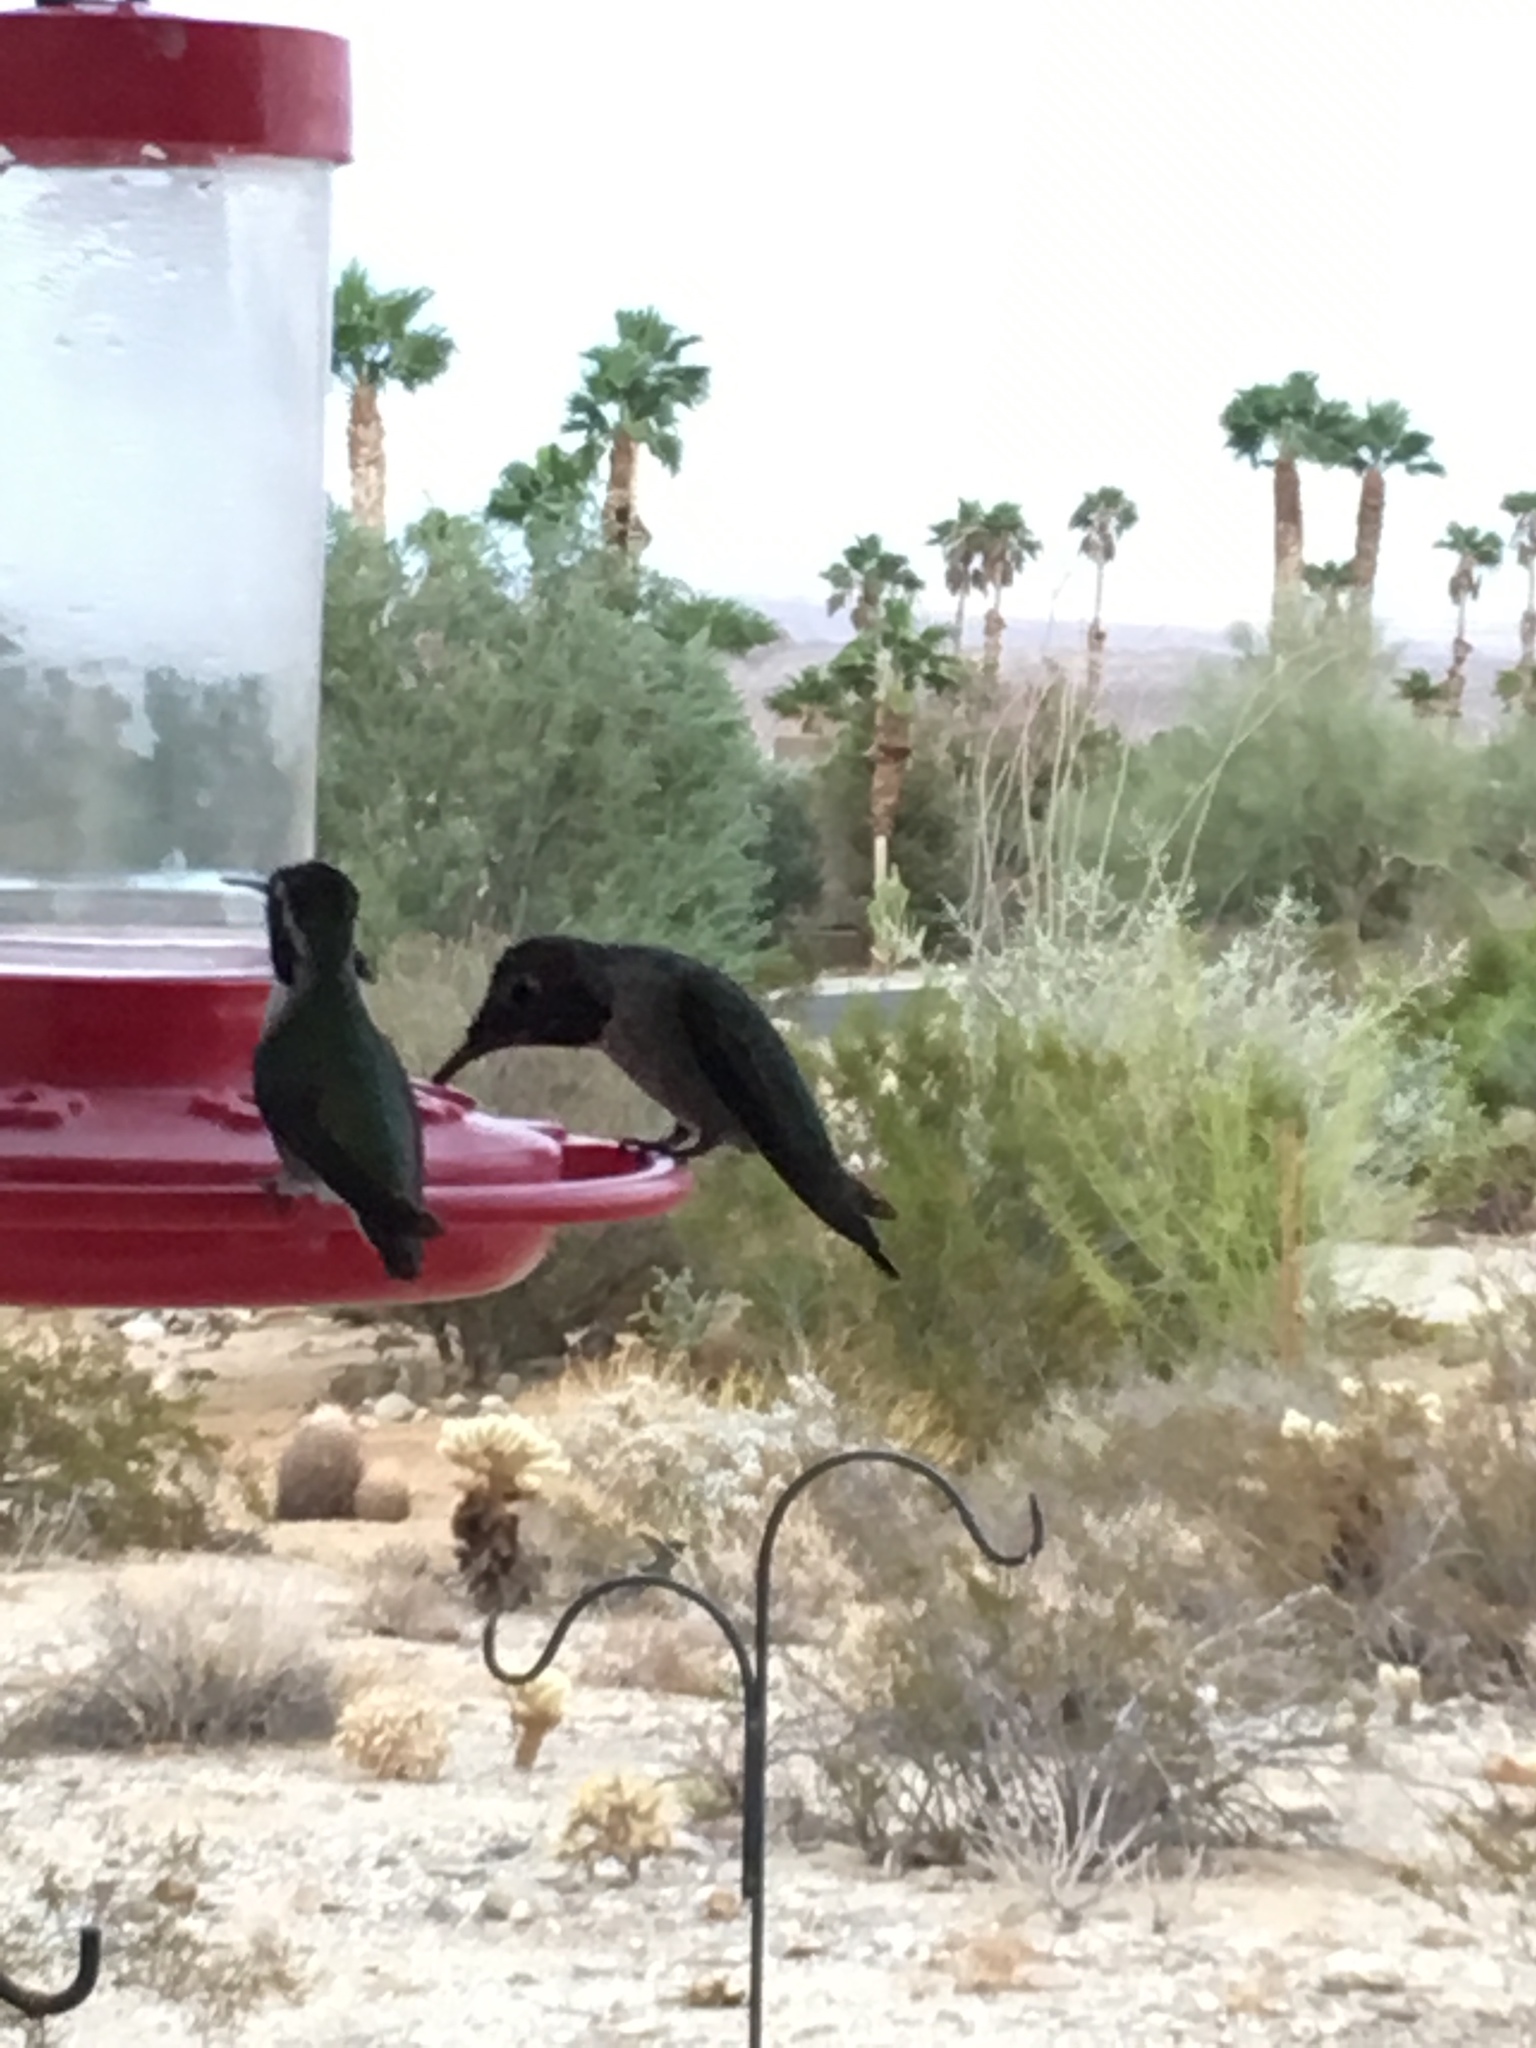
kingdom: Animalia
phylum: Chordata
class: Aves
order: Apodiformes
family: Trochilidae
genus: Calypte
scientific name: Calypte anna
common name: Anna's hummingbird
